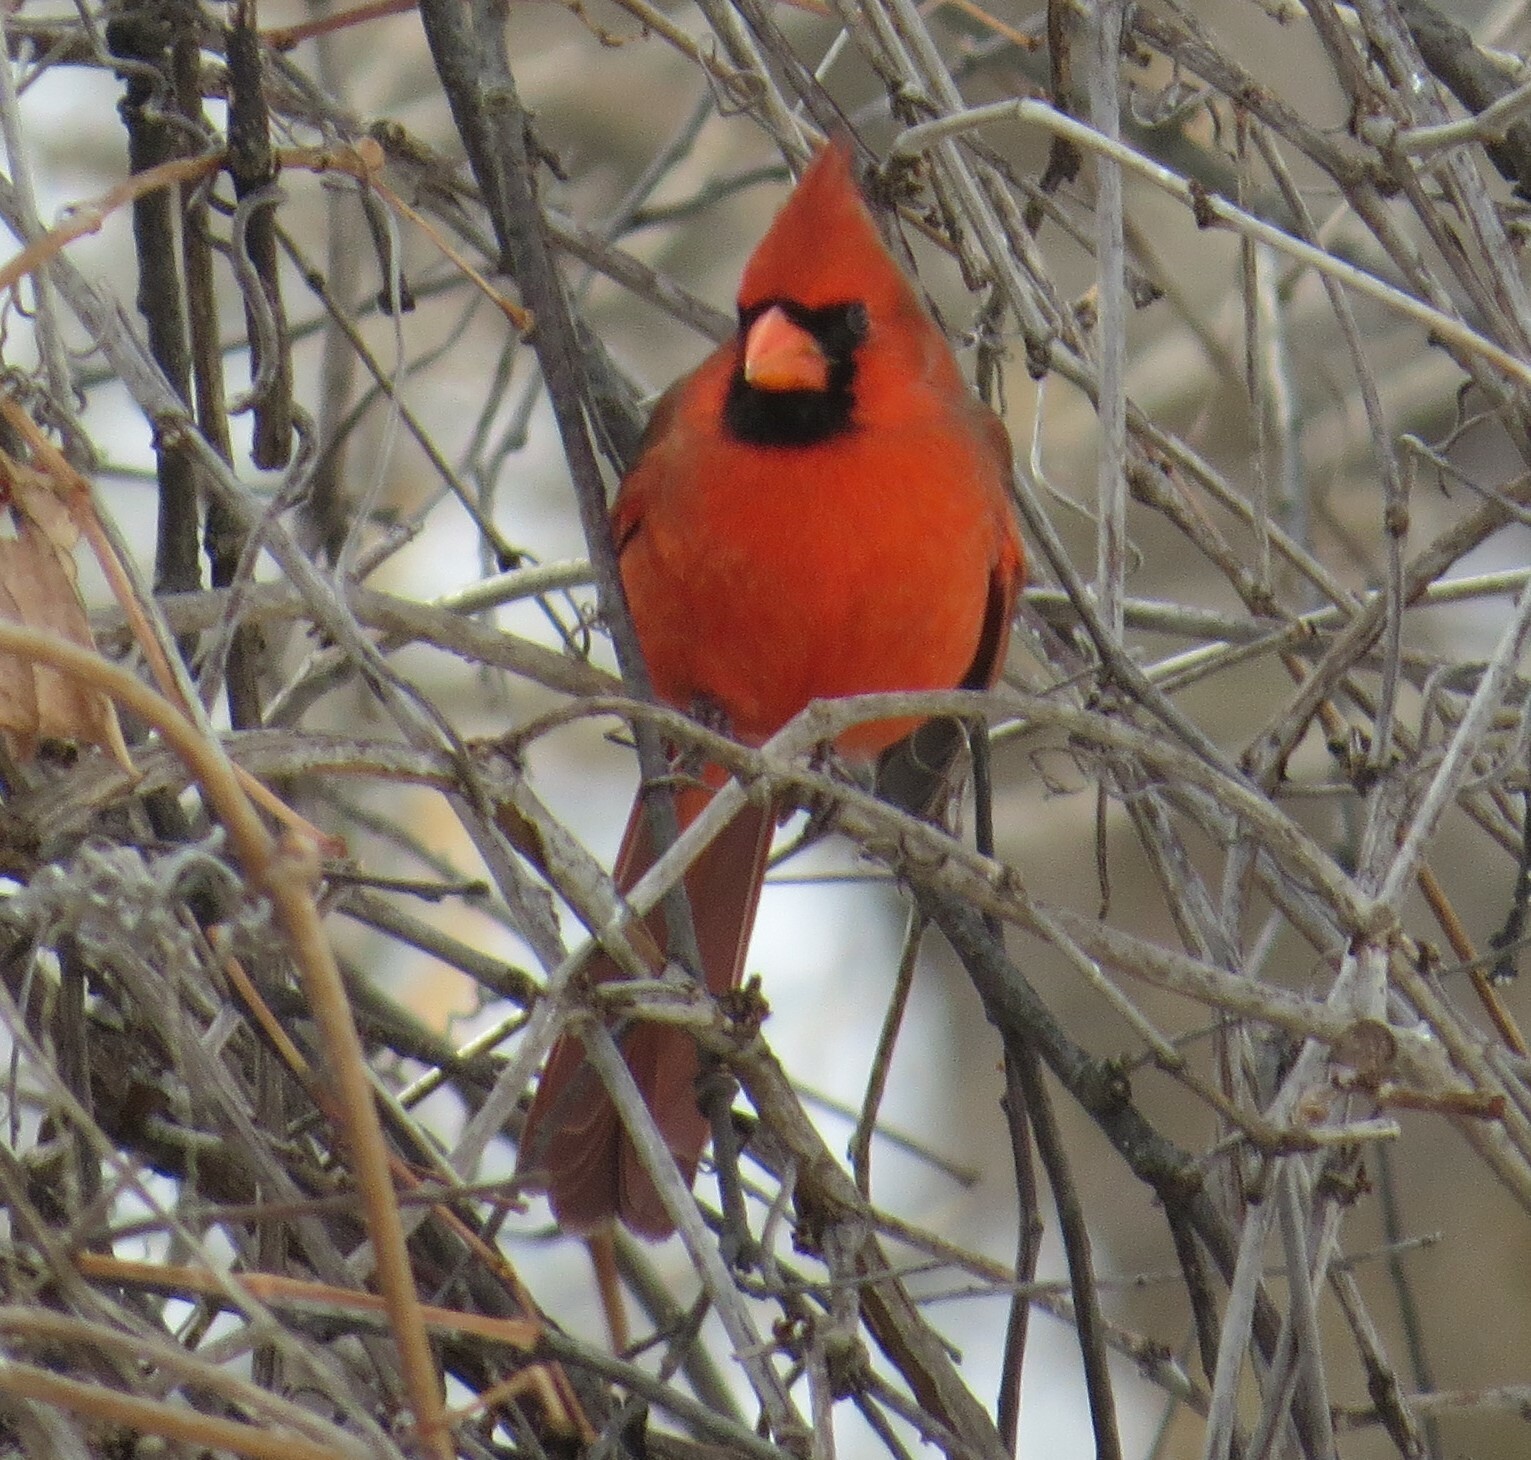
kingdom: Animalia
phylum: Chordata
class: Aves
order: Passeriformes
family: Cardinalidae
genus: Cardinalis
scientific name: Cardinalis cardinalis
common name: Northern cardinal
